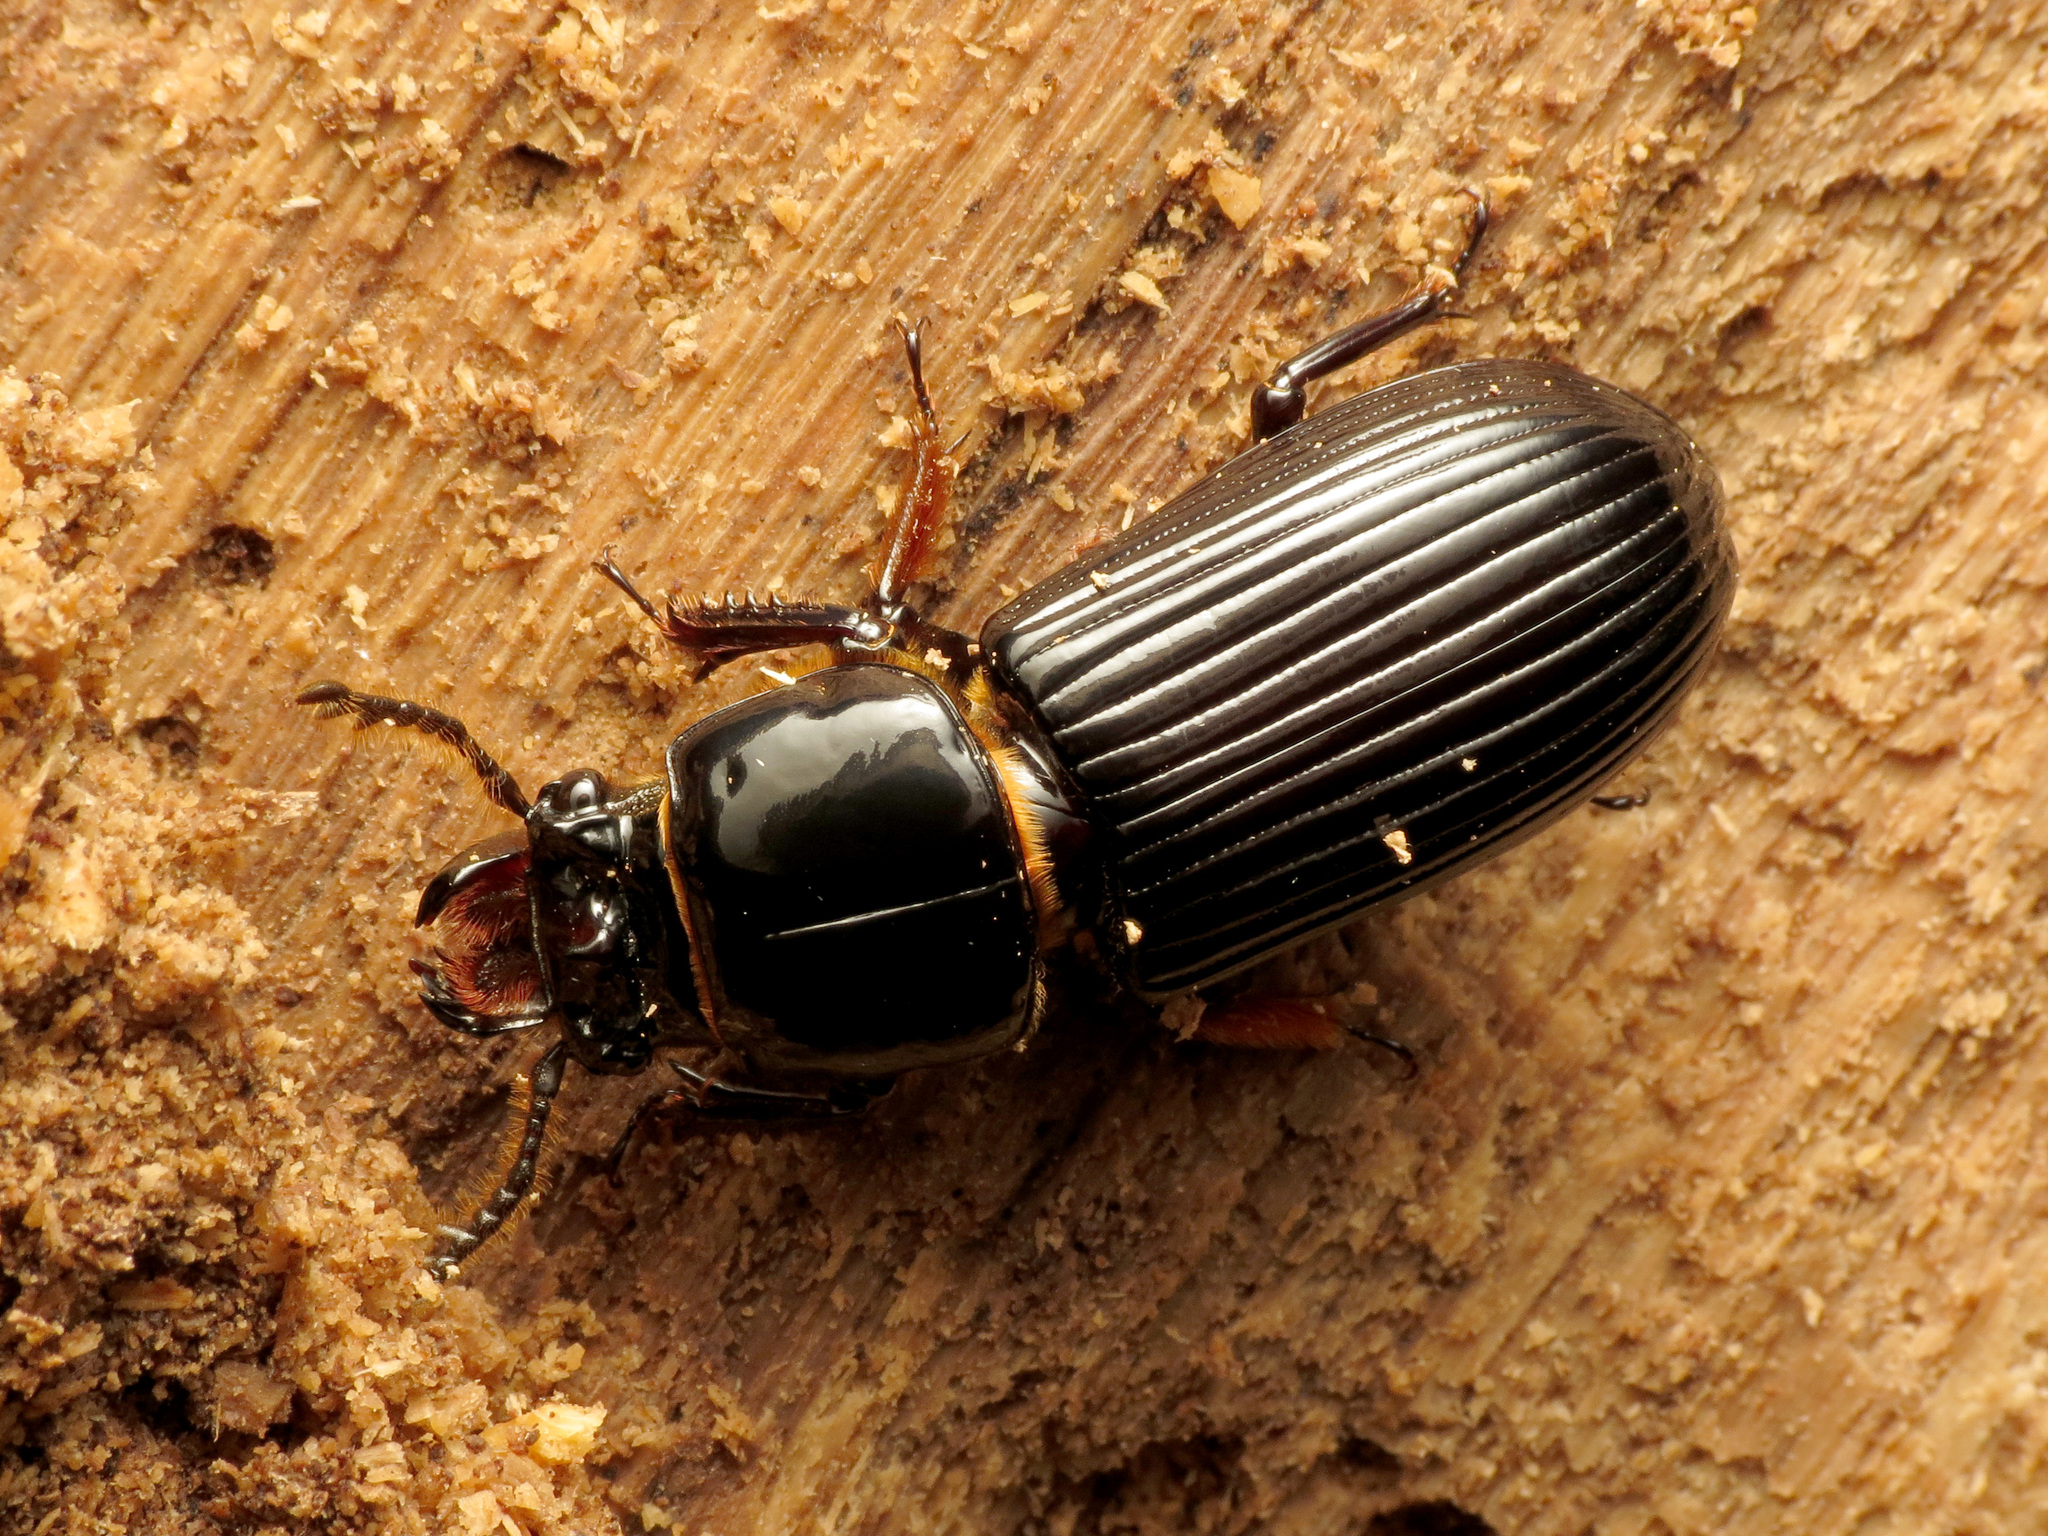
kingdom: Animalia
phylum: Arthropoda
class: Insecta
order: Coleoptera
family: Passalidae
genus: Odontotaenius
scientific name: Odontotaenius disjunctus
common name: Patent leather beetle
